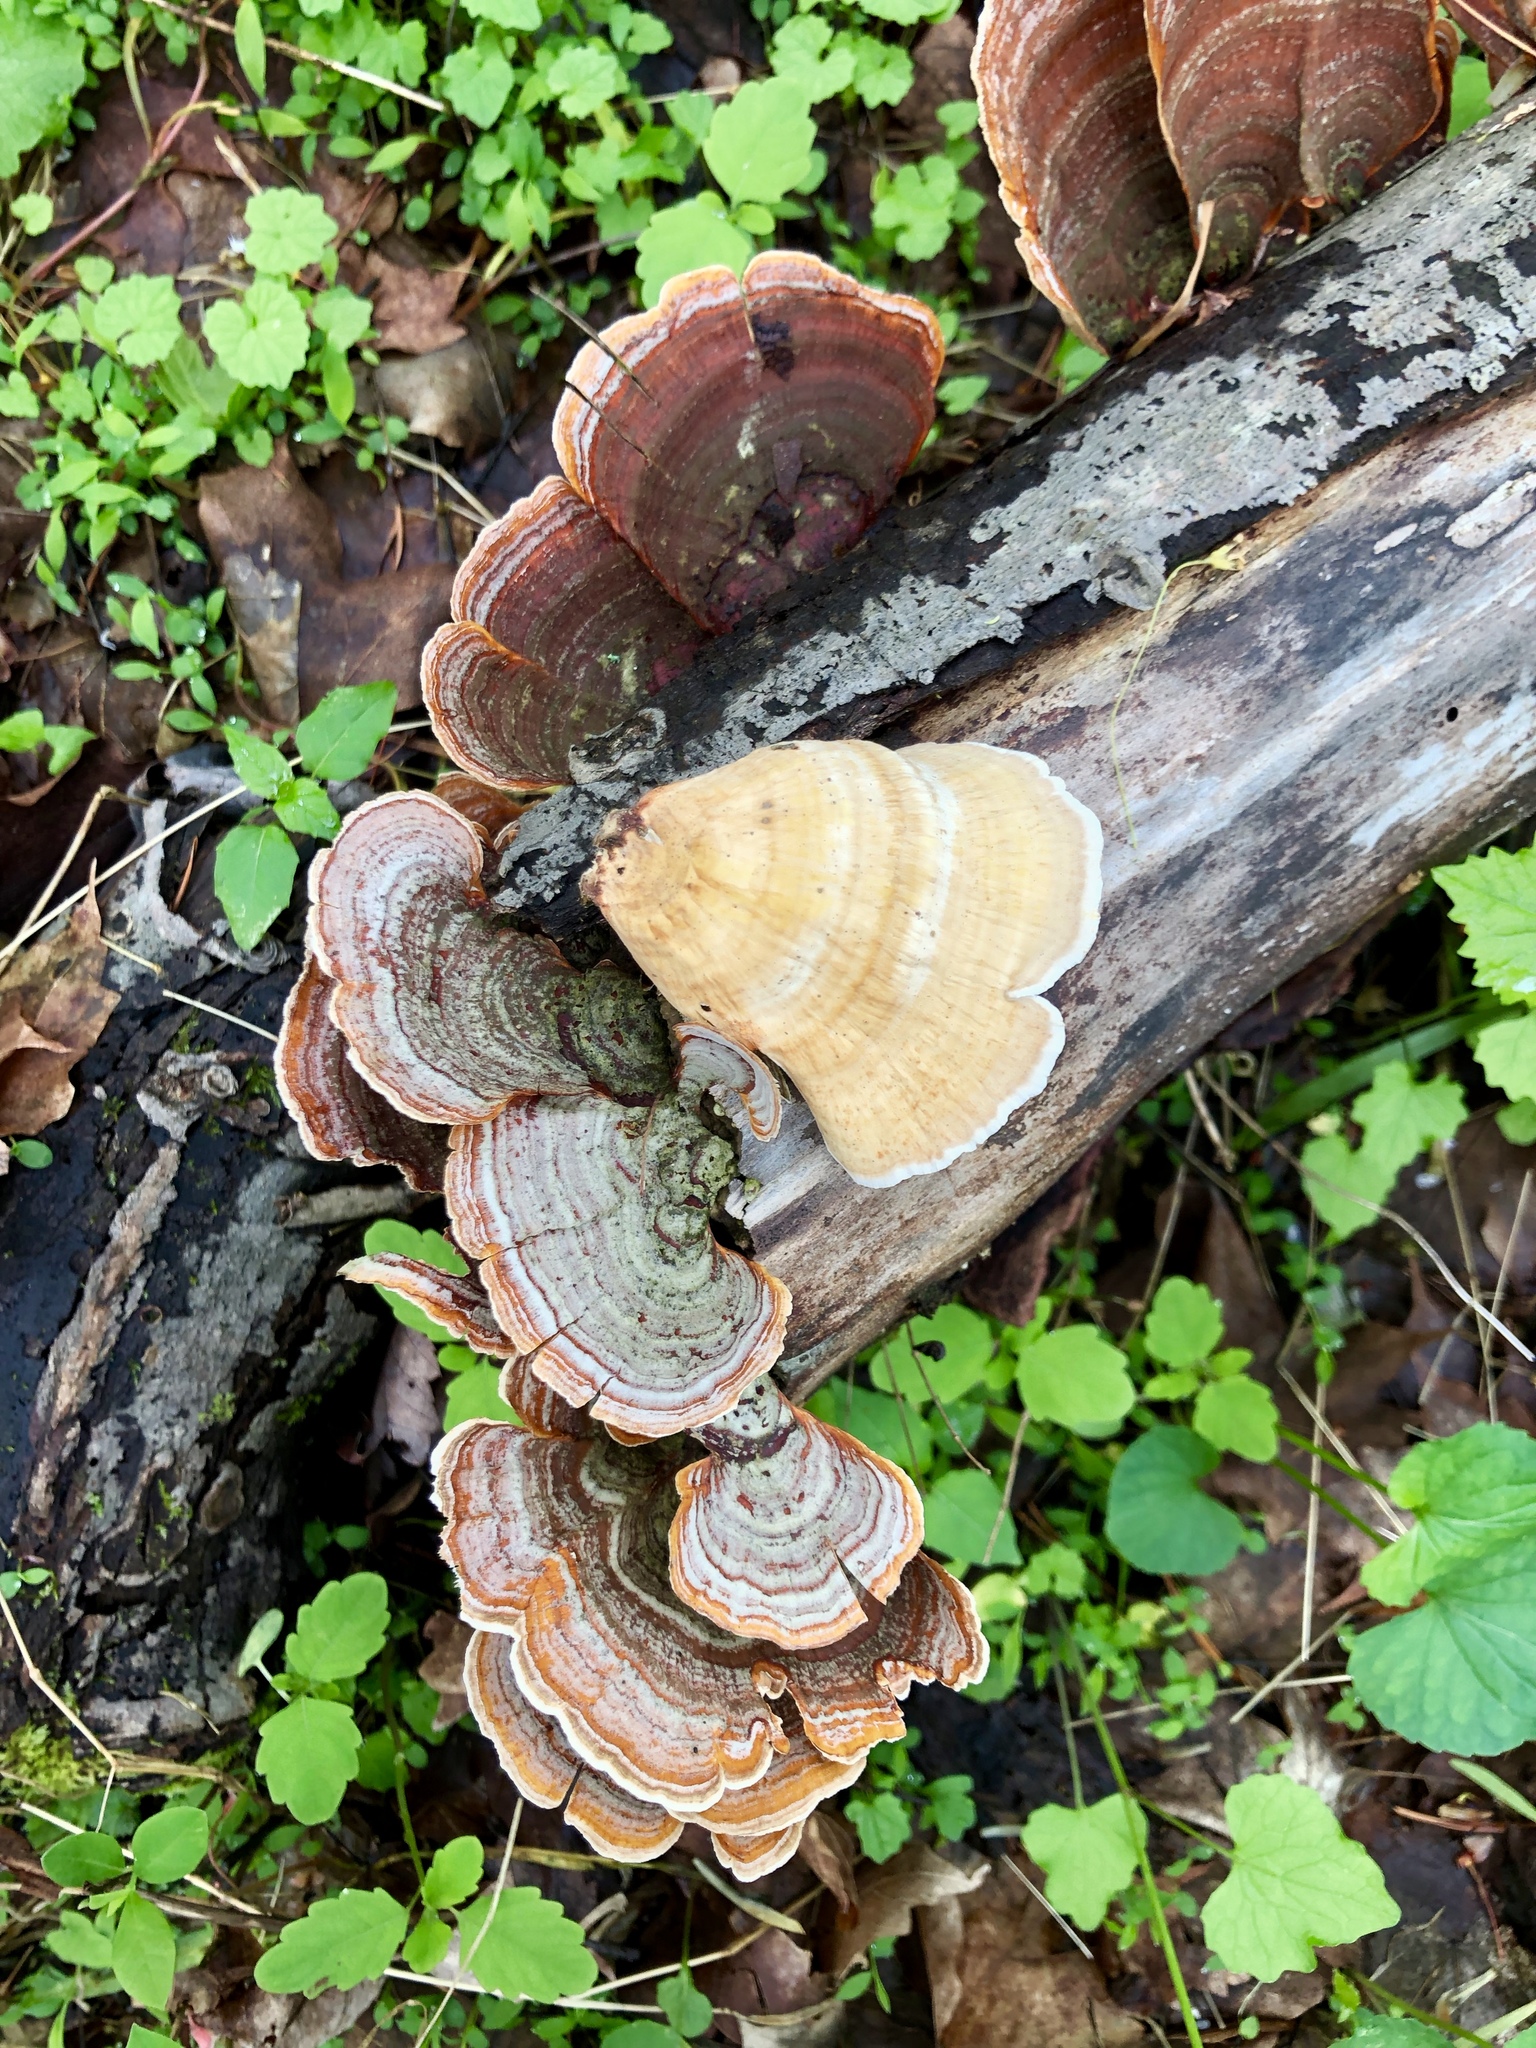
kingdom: Fungi
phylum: Basidiomycota
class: Agaricomycetes
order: Russulales
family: Stereaceae
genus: Stereum
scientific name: Stereum ostrea
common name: False turkeytail
